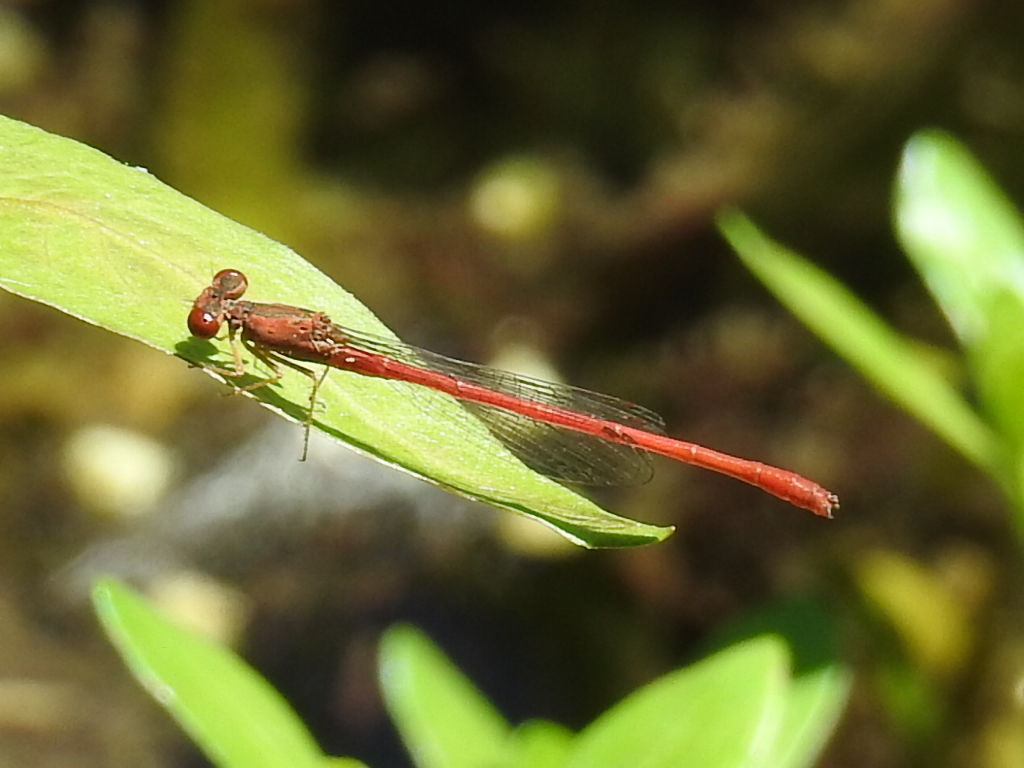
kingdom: Animalia
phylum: Arthropoda
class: Insecta
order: Odonata
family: Coenagrionidae
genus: Telebasis
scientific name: Telebasis salva
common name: Desert firetail
